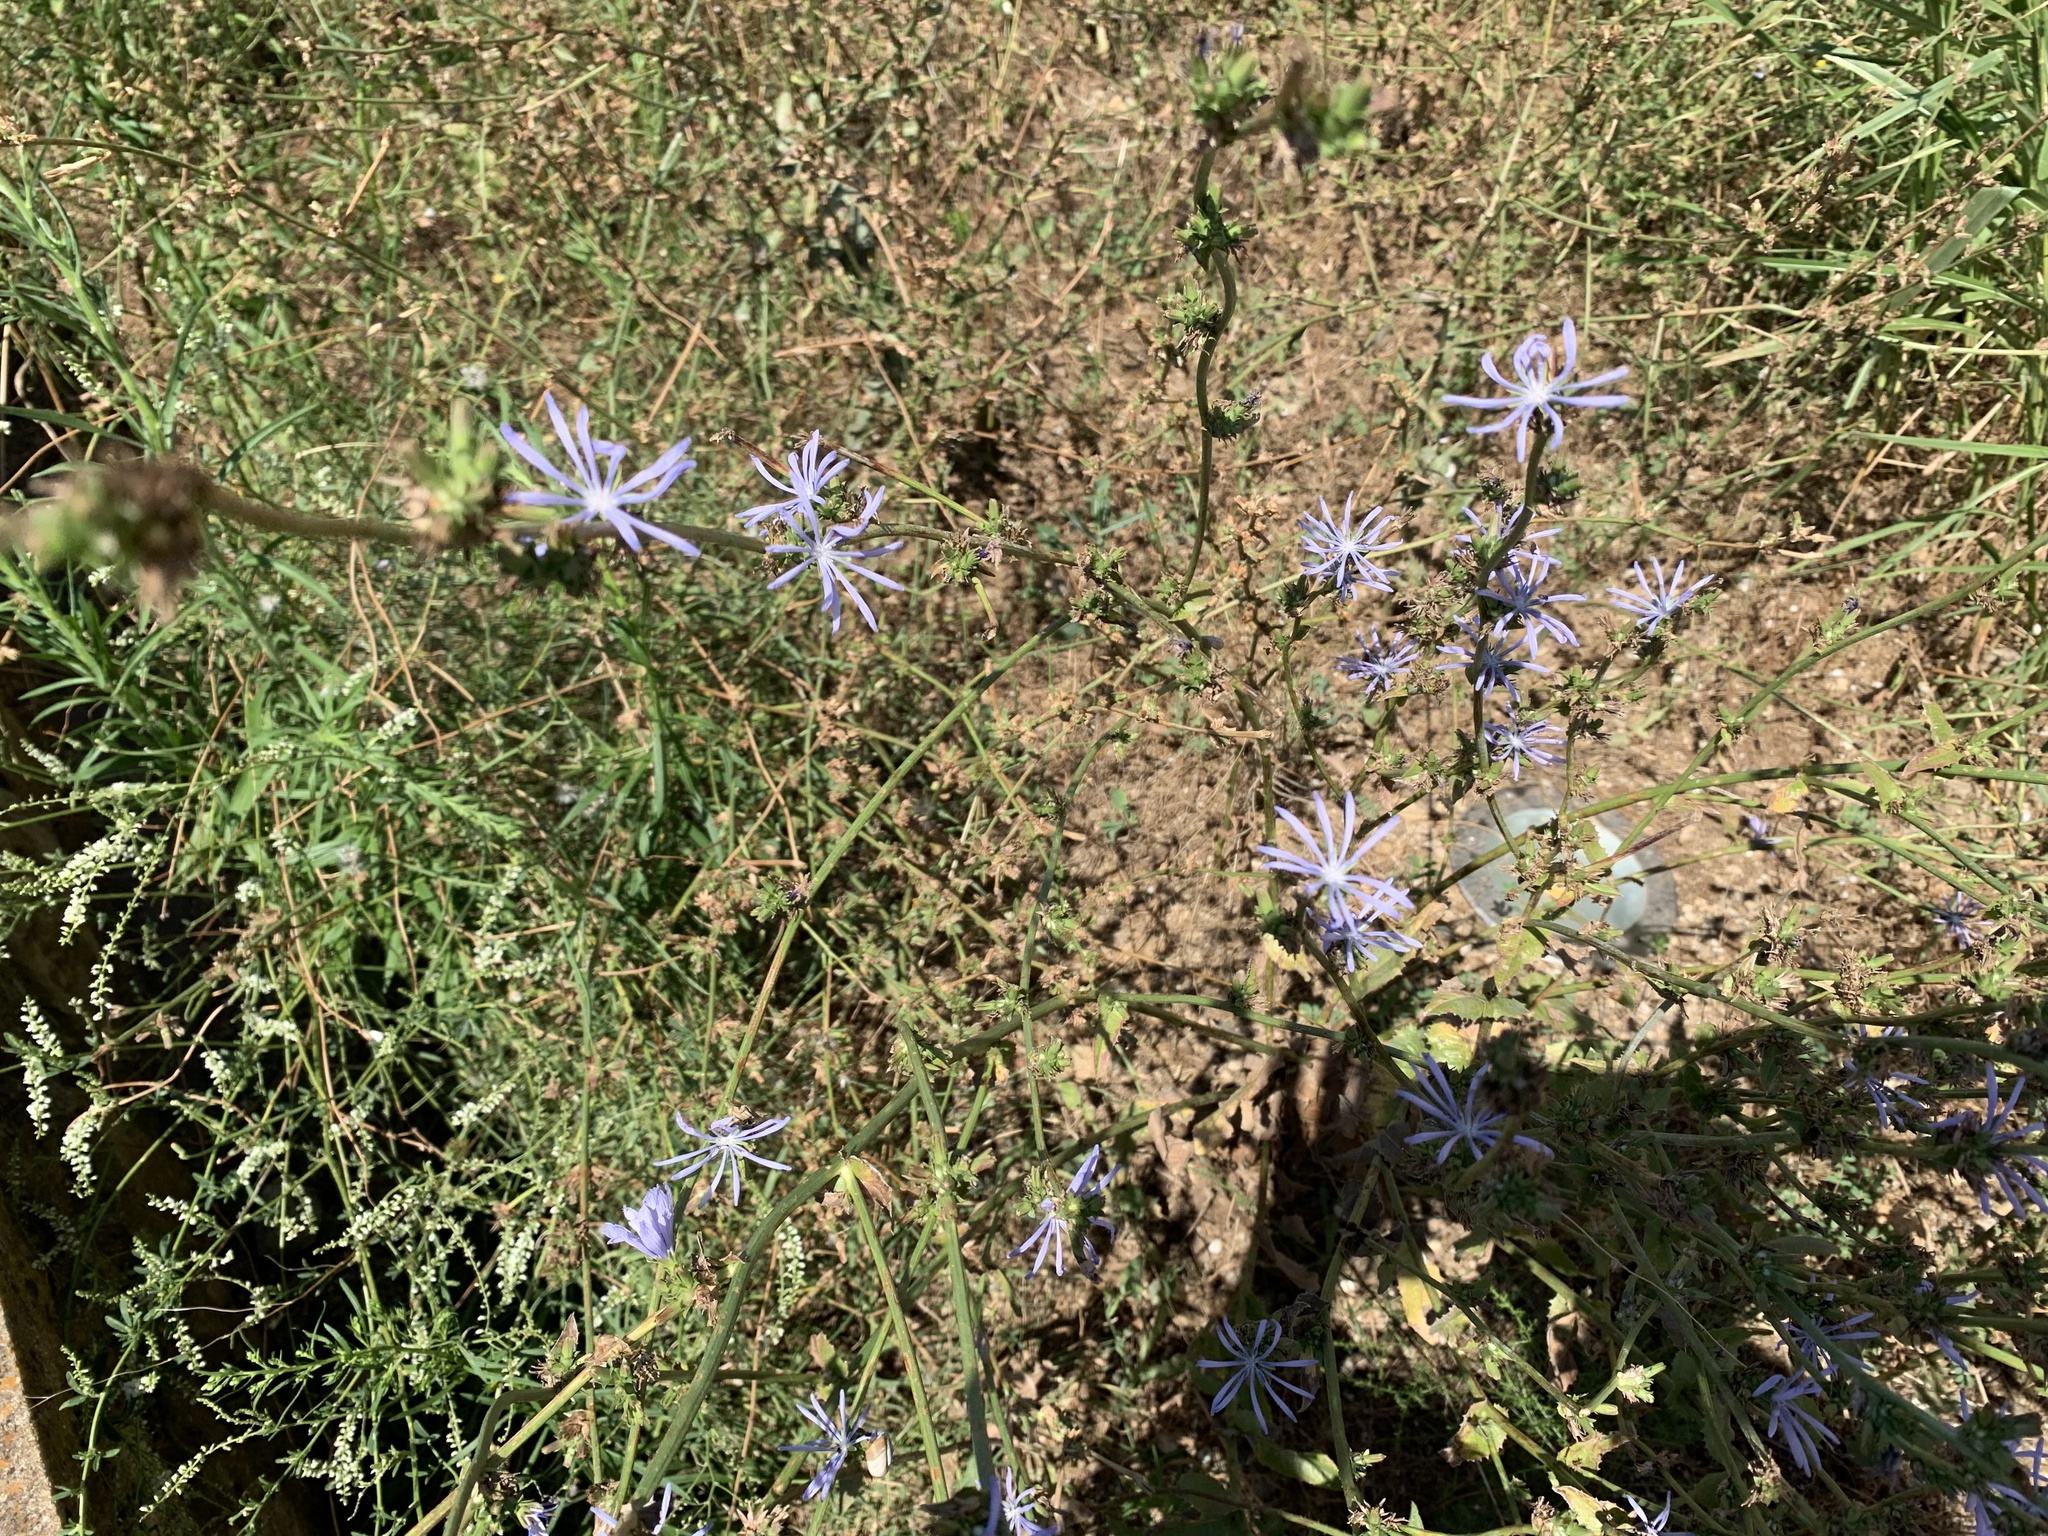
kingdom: Plantae
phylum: Tracheophyta
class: Magnoliopsida
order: Asterales
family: Asteraceae
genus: Cichorium
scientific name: Cichorium intybus
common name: Chicory
